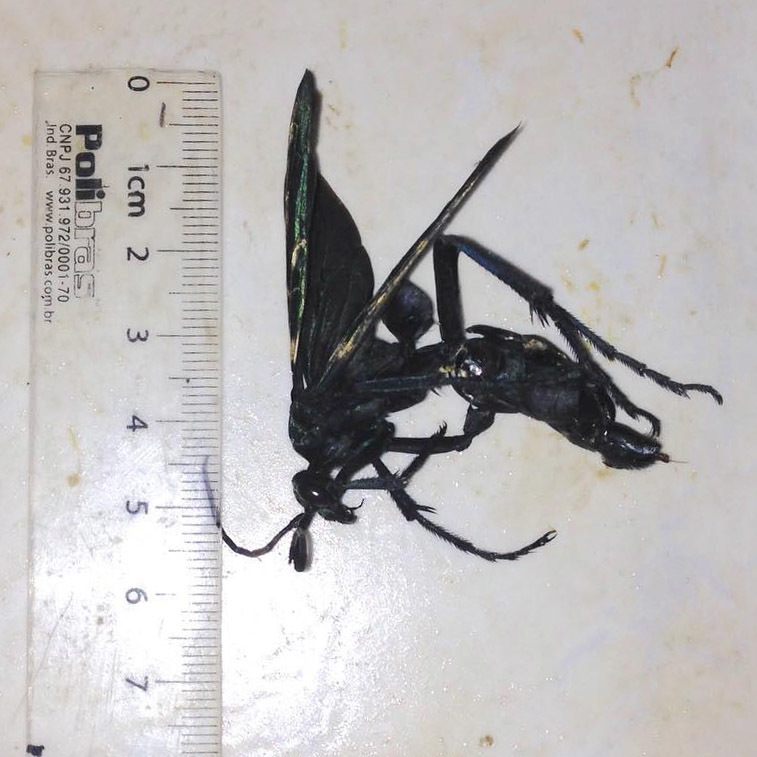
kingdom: Animalia
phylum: Arthropoda
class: Insecta
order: Hymenoptera
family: Pompilidae
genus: Pepsis
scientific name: Pepsis decorata
